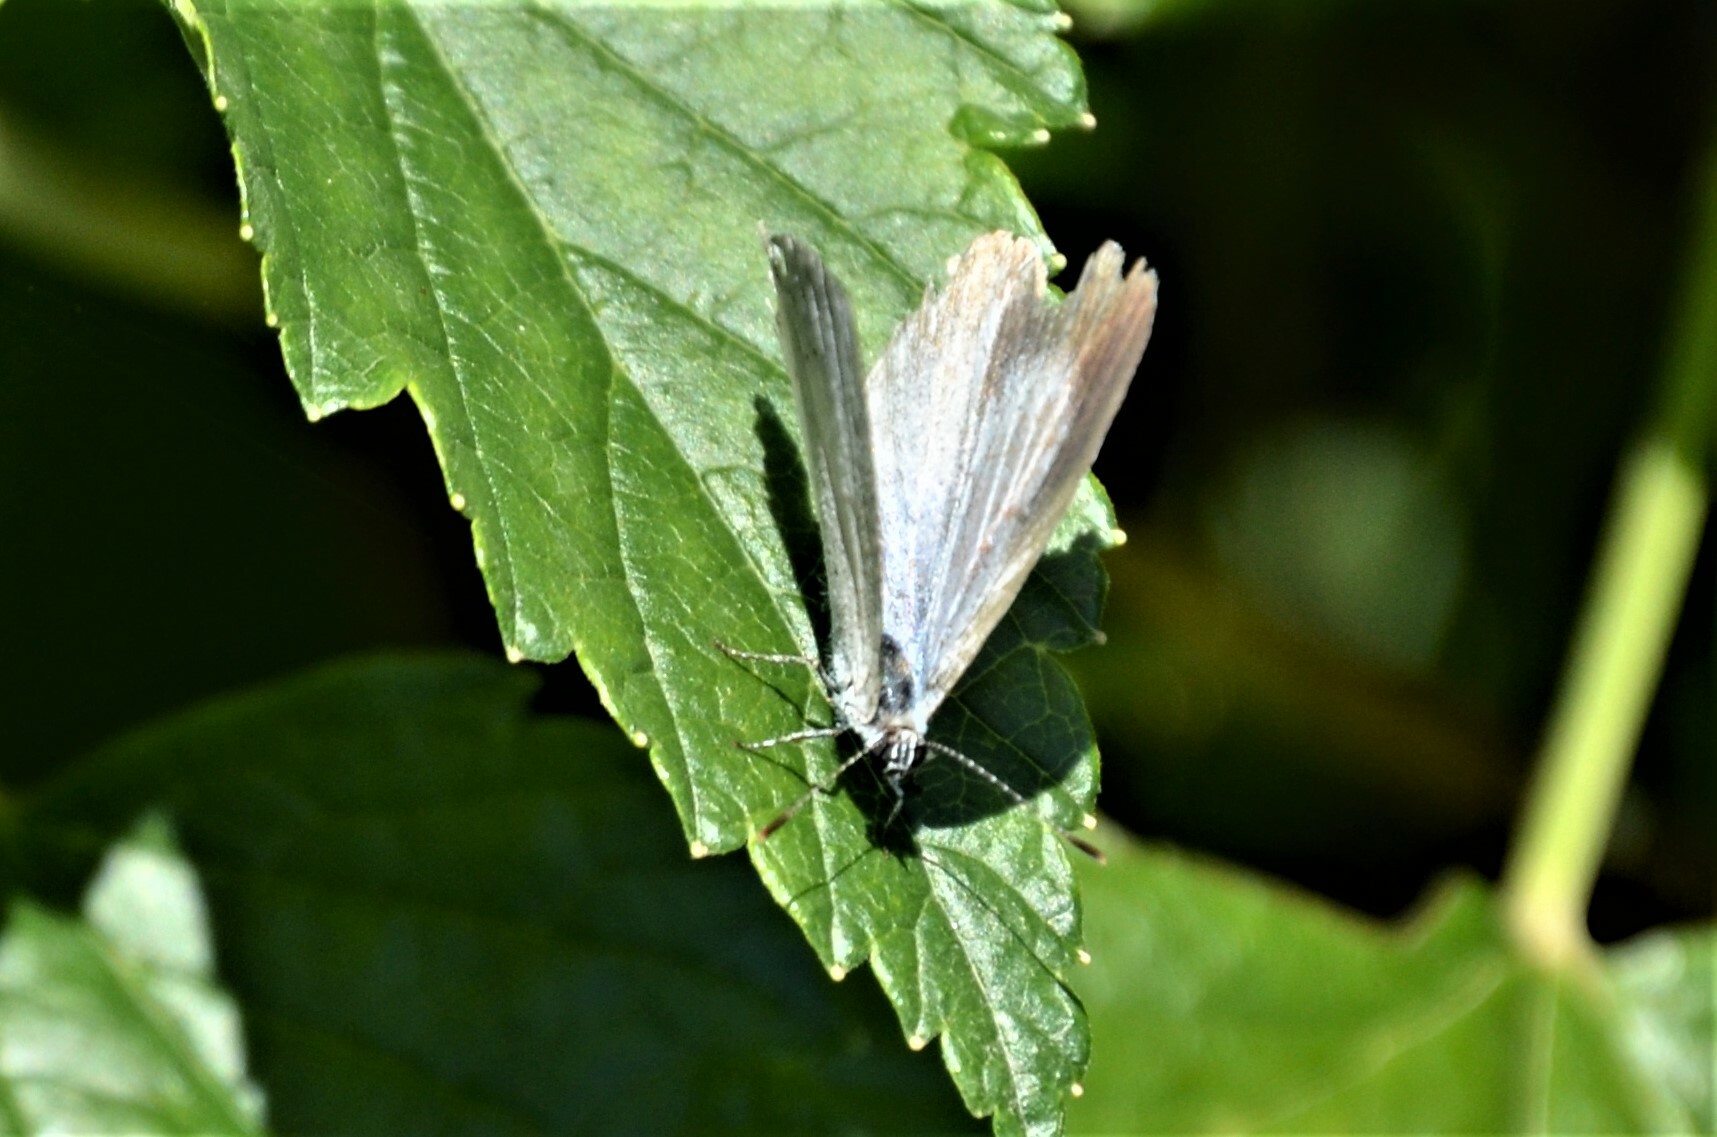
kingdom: Animalia
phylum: Arthropoda
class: Insecta
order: Lepidoptera
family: Lycaenidae
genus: Celastrina
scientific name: Celastrina argiolus
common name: Holly blue
